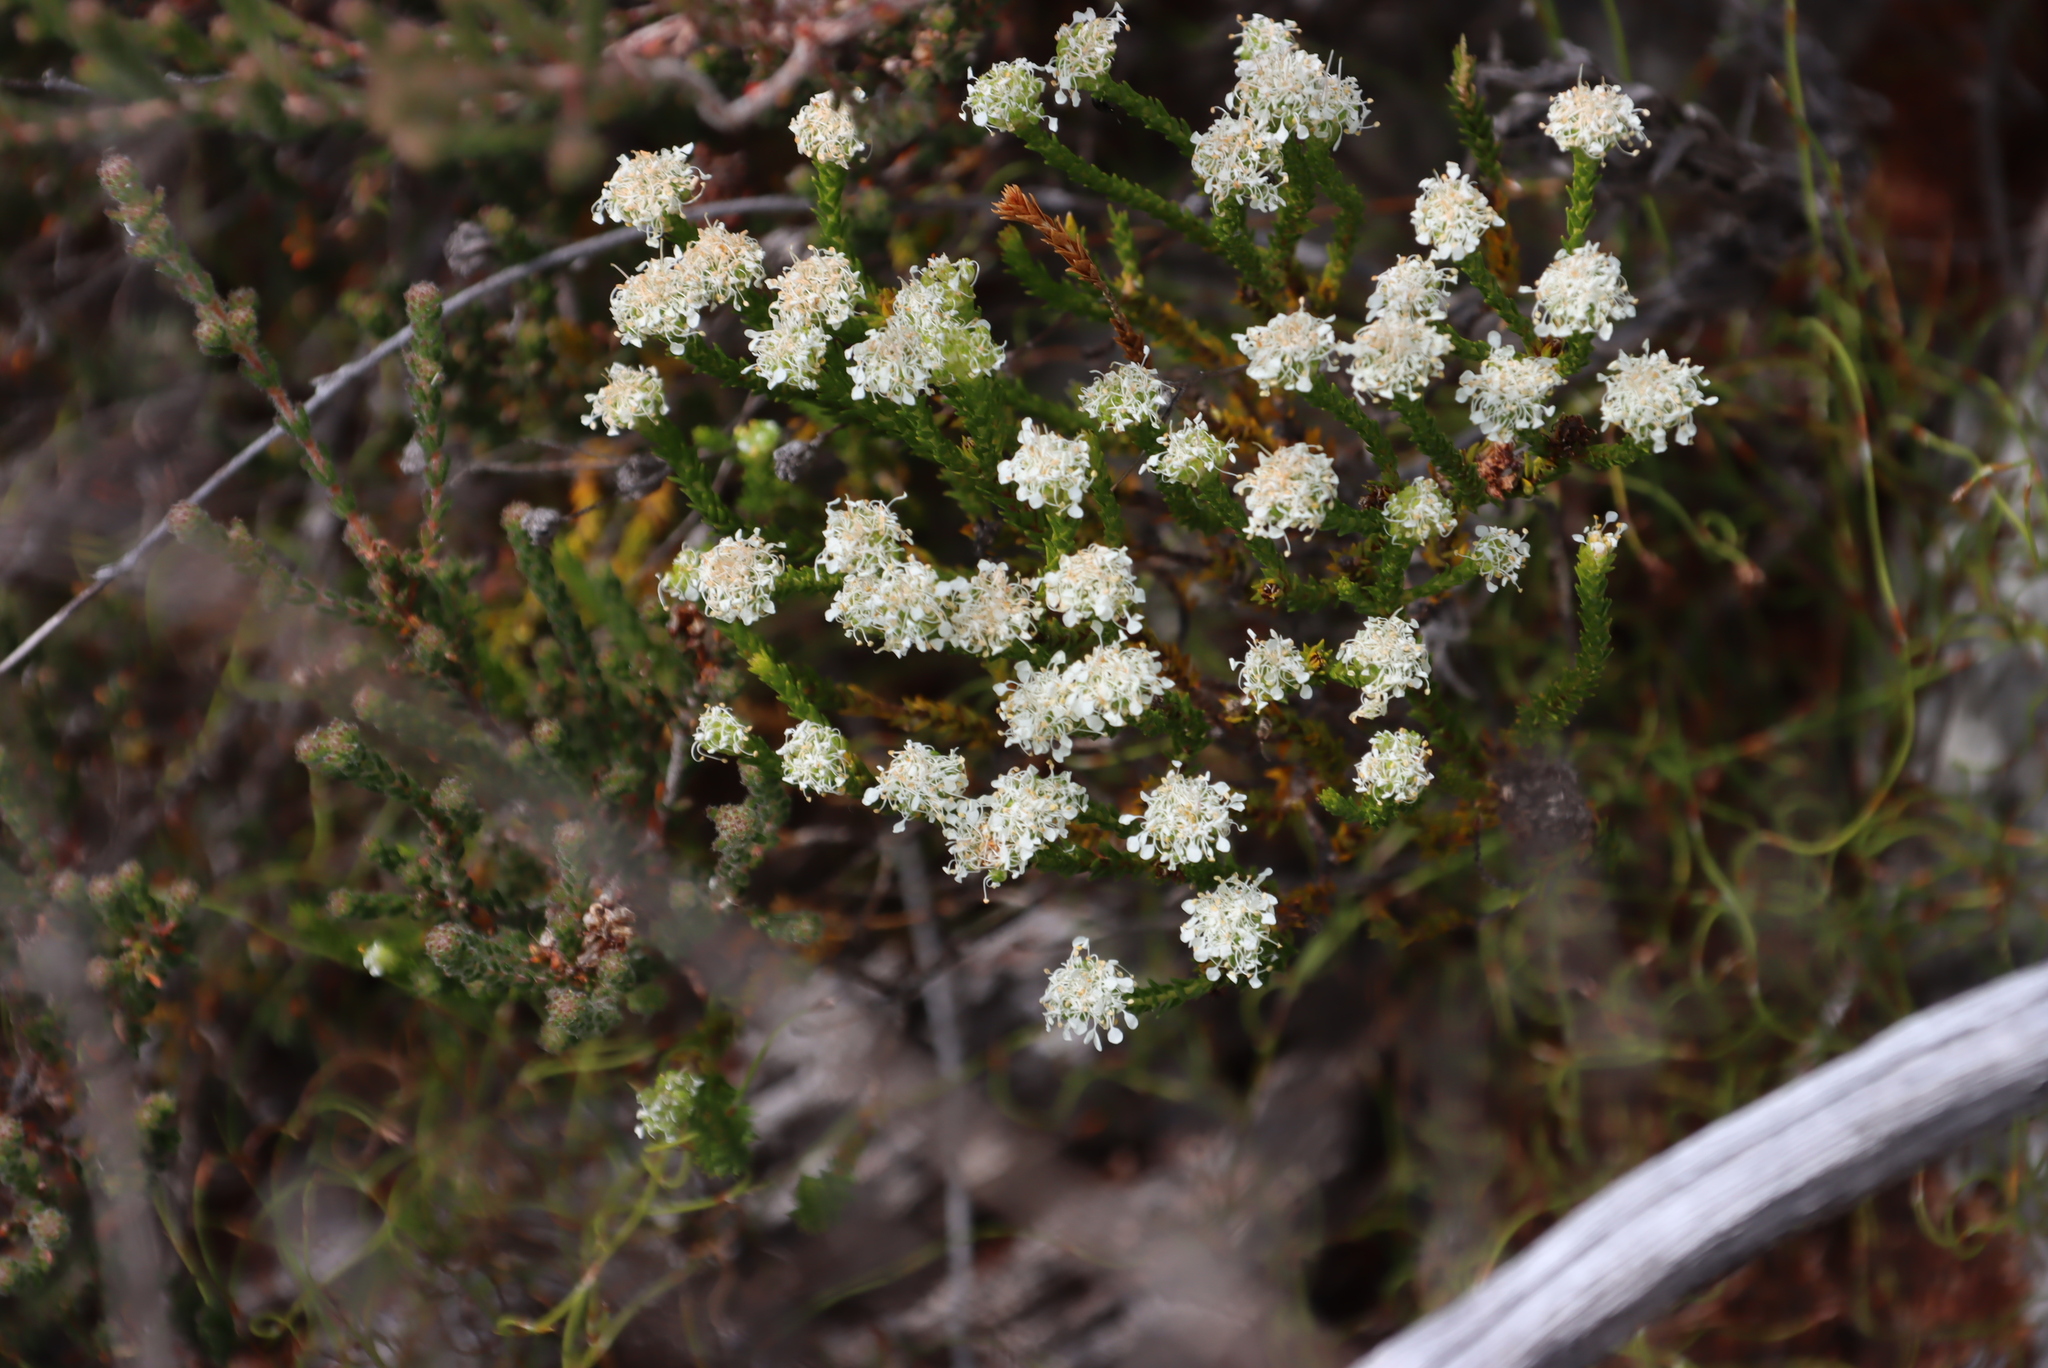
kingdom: Plantae
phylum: Tracheophyta
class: Magnoliopsida
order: Sapindales
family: Rutaceae
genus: Agathosma
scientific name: Agathosma imbricata
